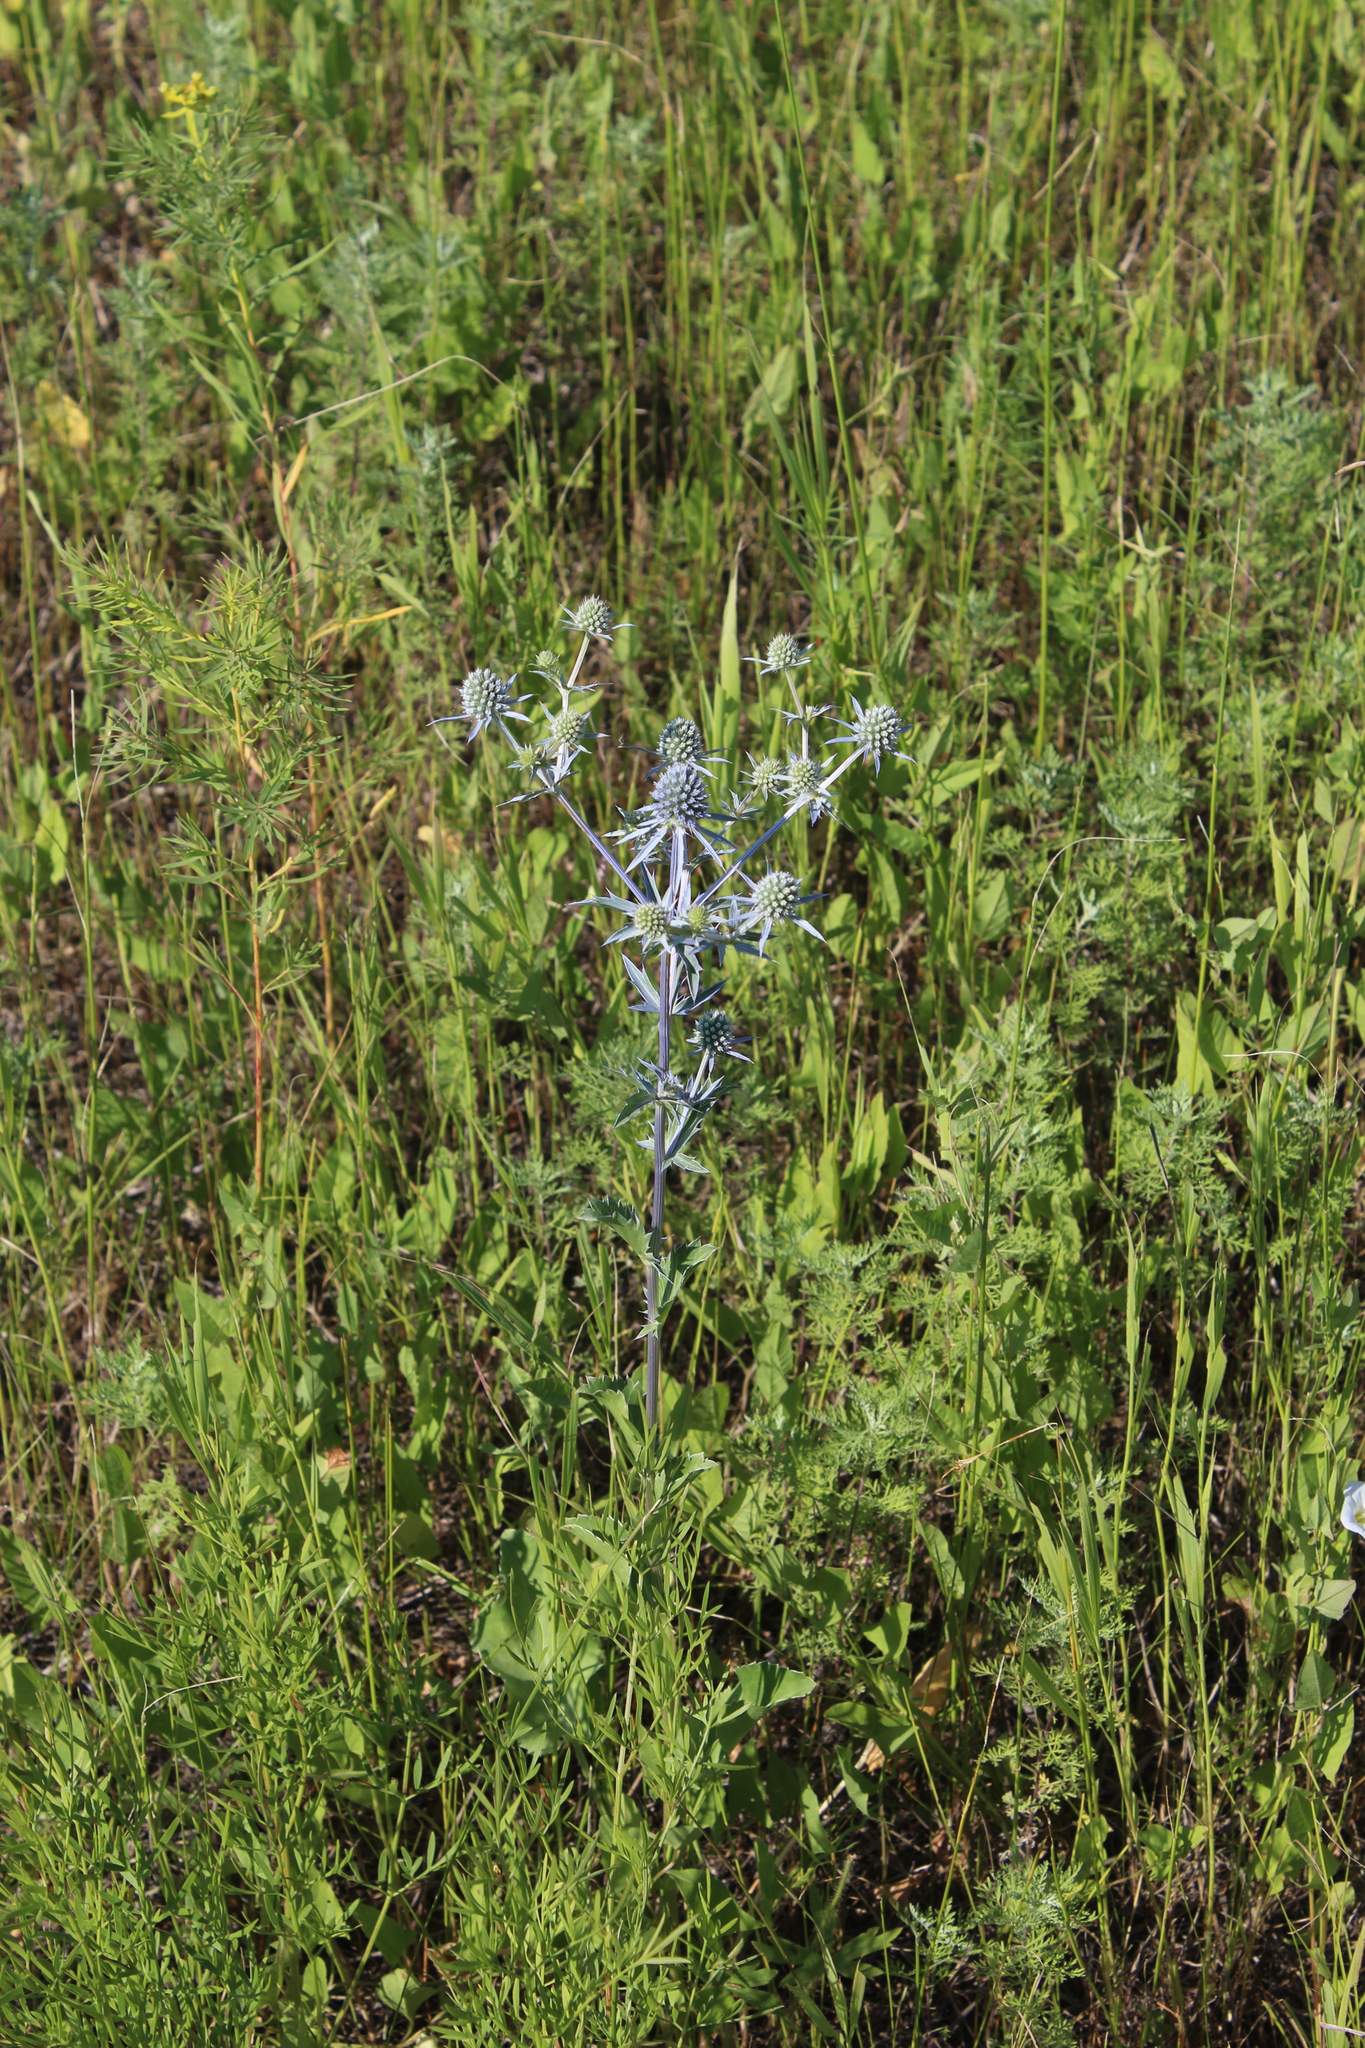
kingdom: Plantae
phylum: Tracheophyta
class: Magnoliopsida
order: Apiales
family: Apiaceae
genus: Eryngium
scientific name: Eryngium planum
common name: Blue eryngo
